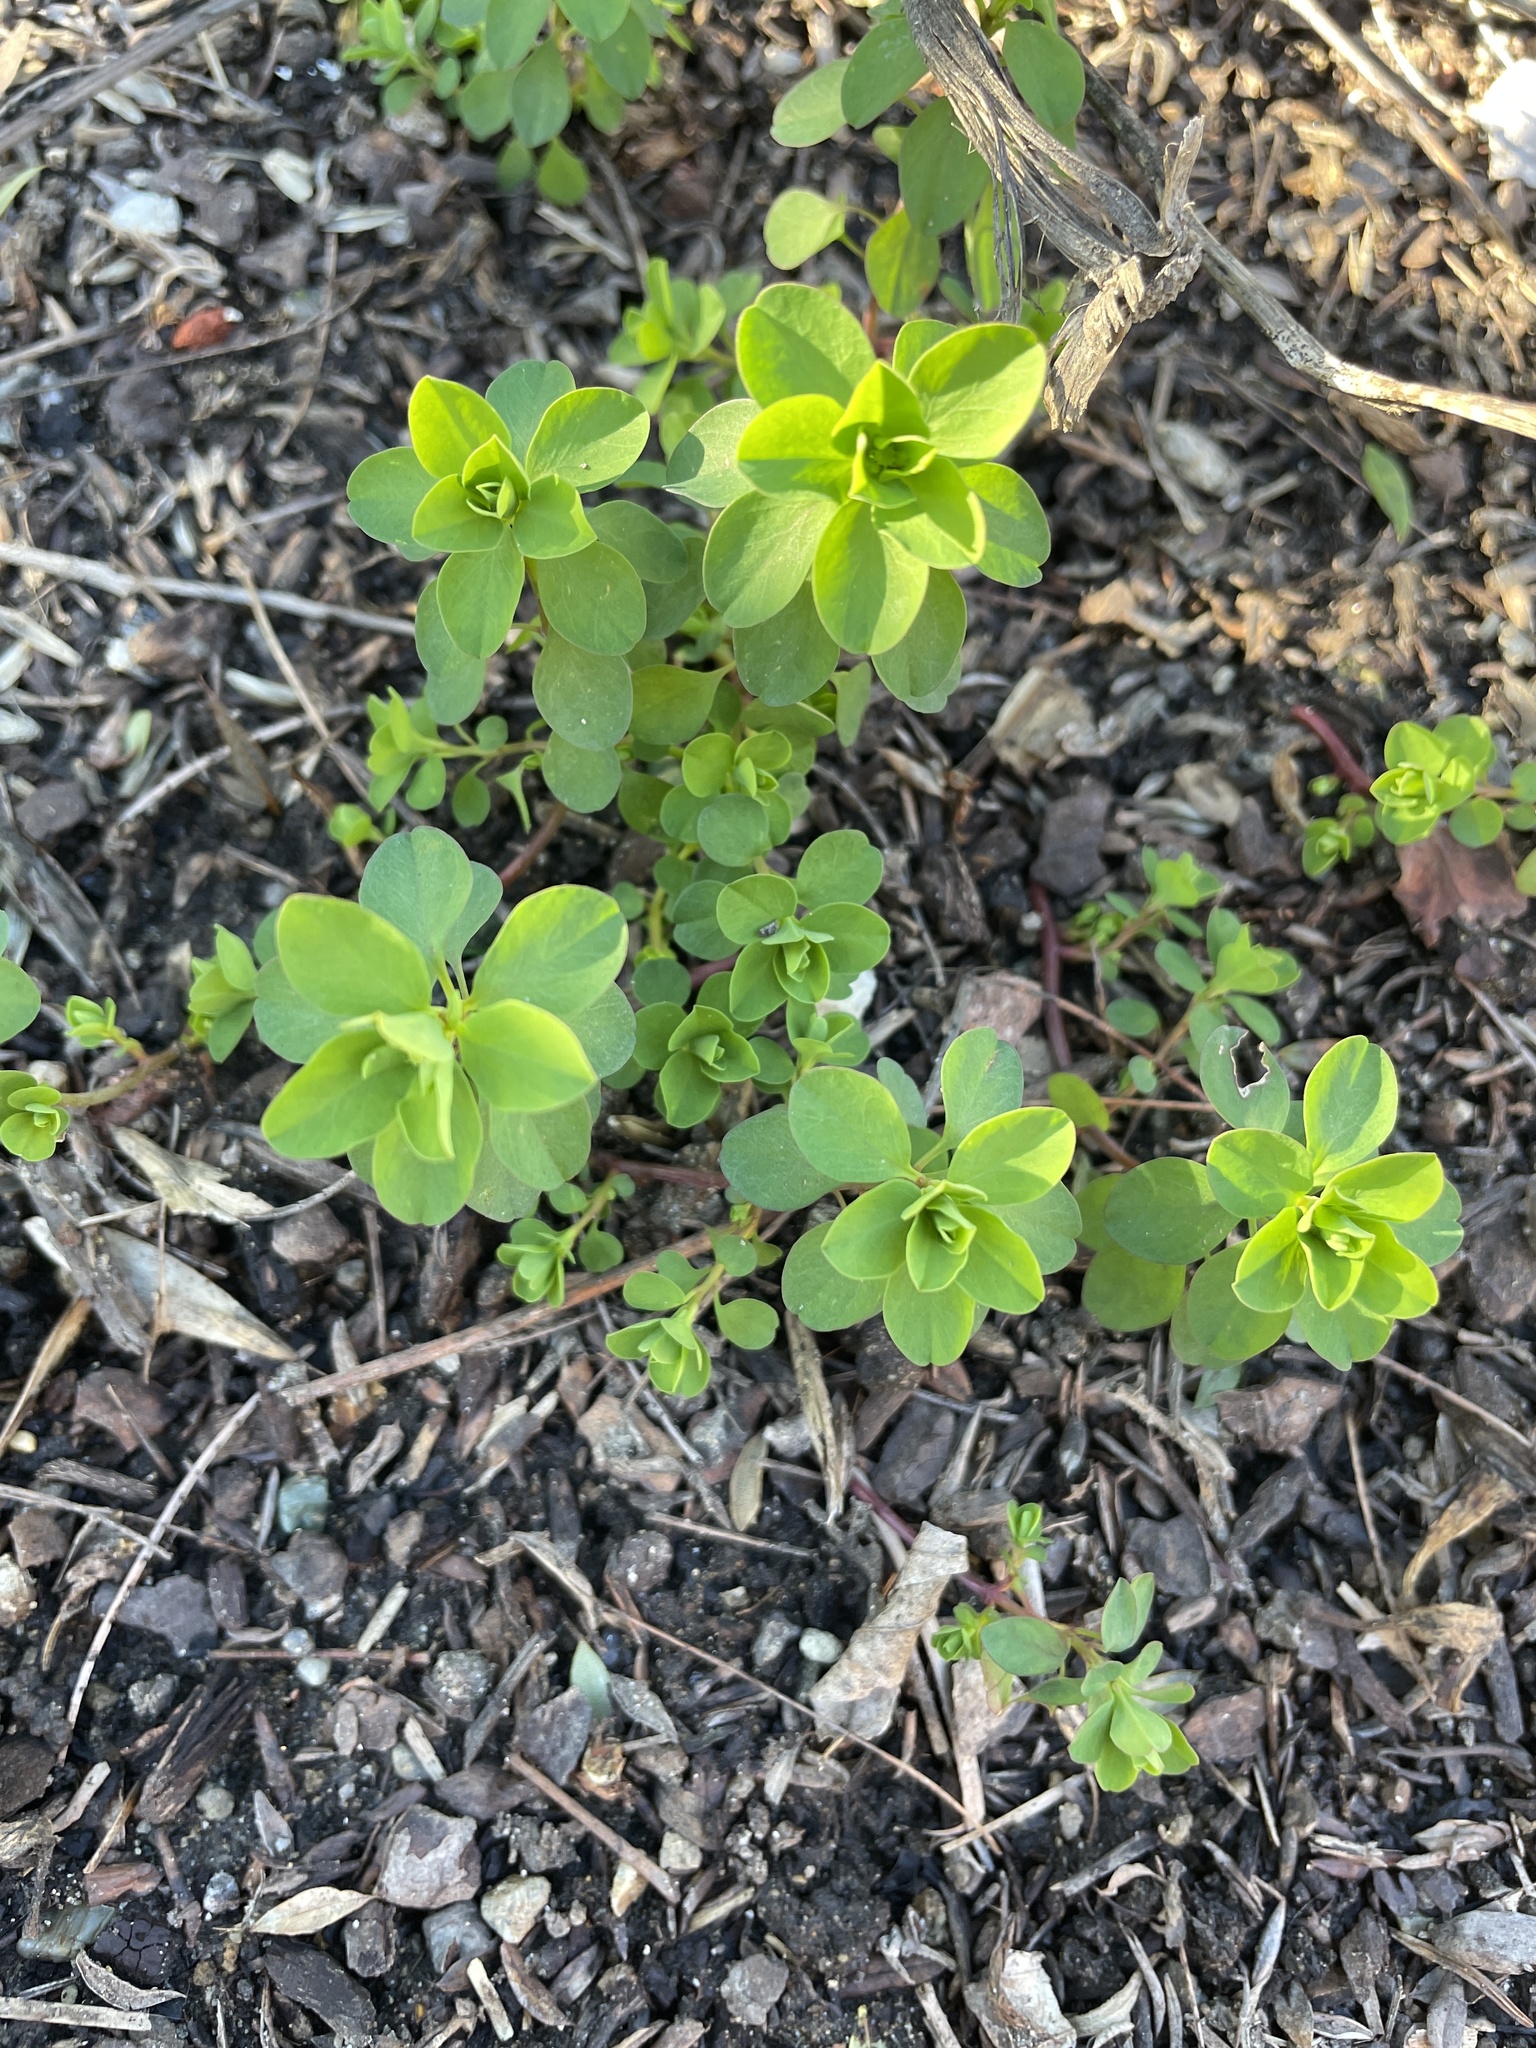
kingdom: Plantae
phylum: Tracheophyta
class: Magnoliopsida
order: Malpighiales
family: Euphorbiaceae
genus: Euphorbia
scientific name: Euphorbia peplus
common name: Petty spurge
